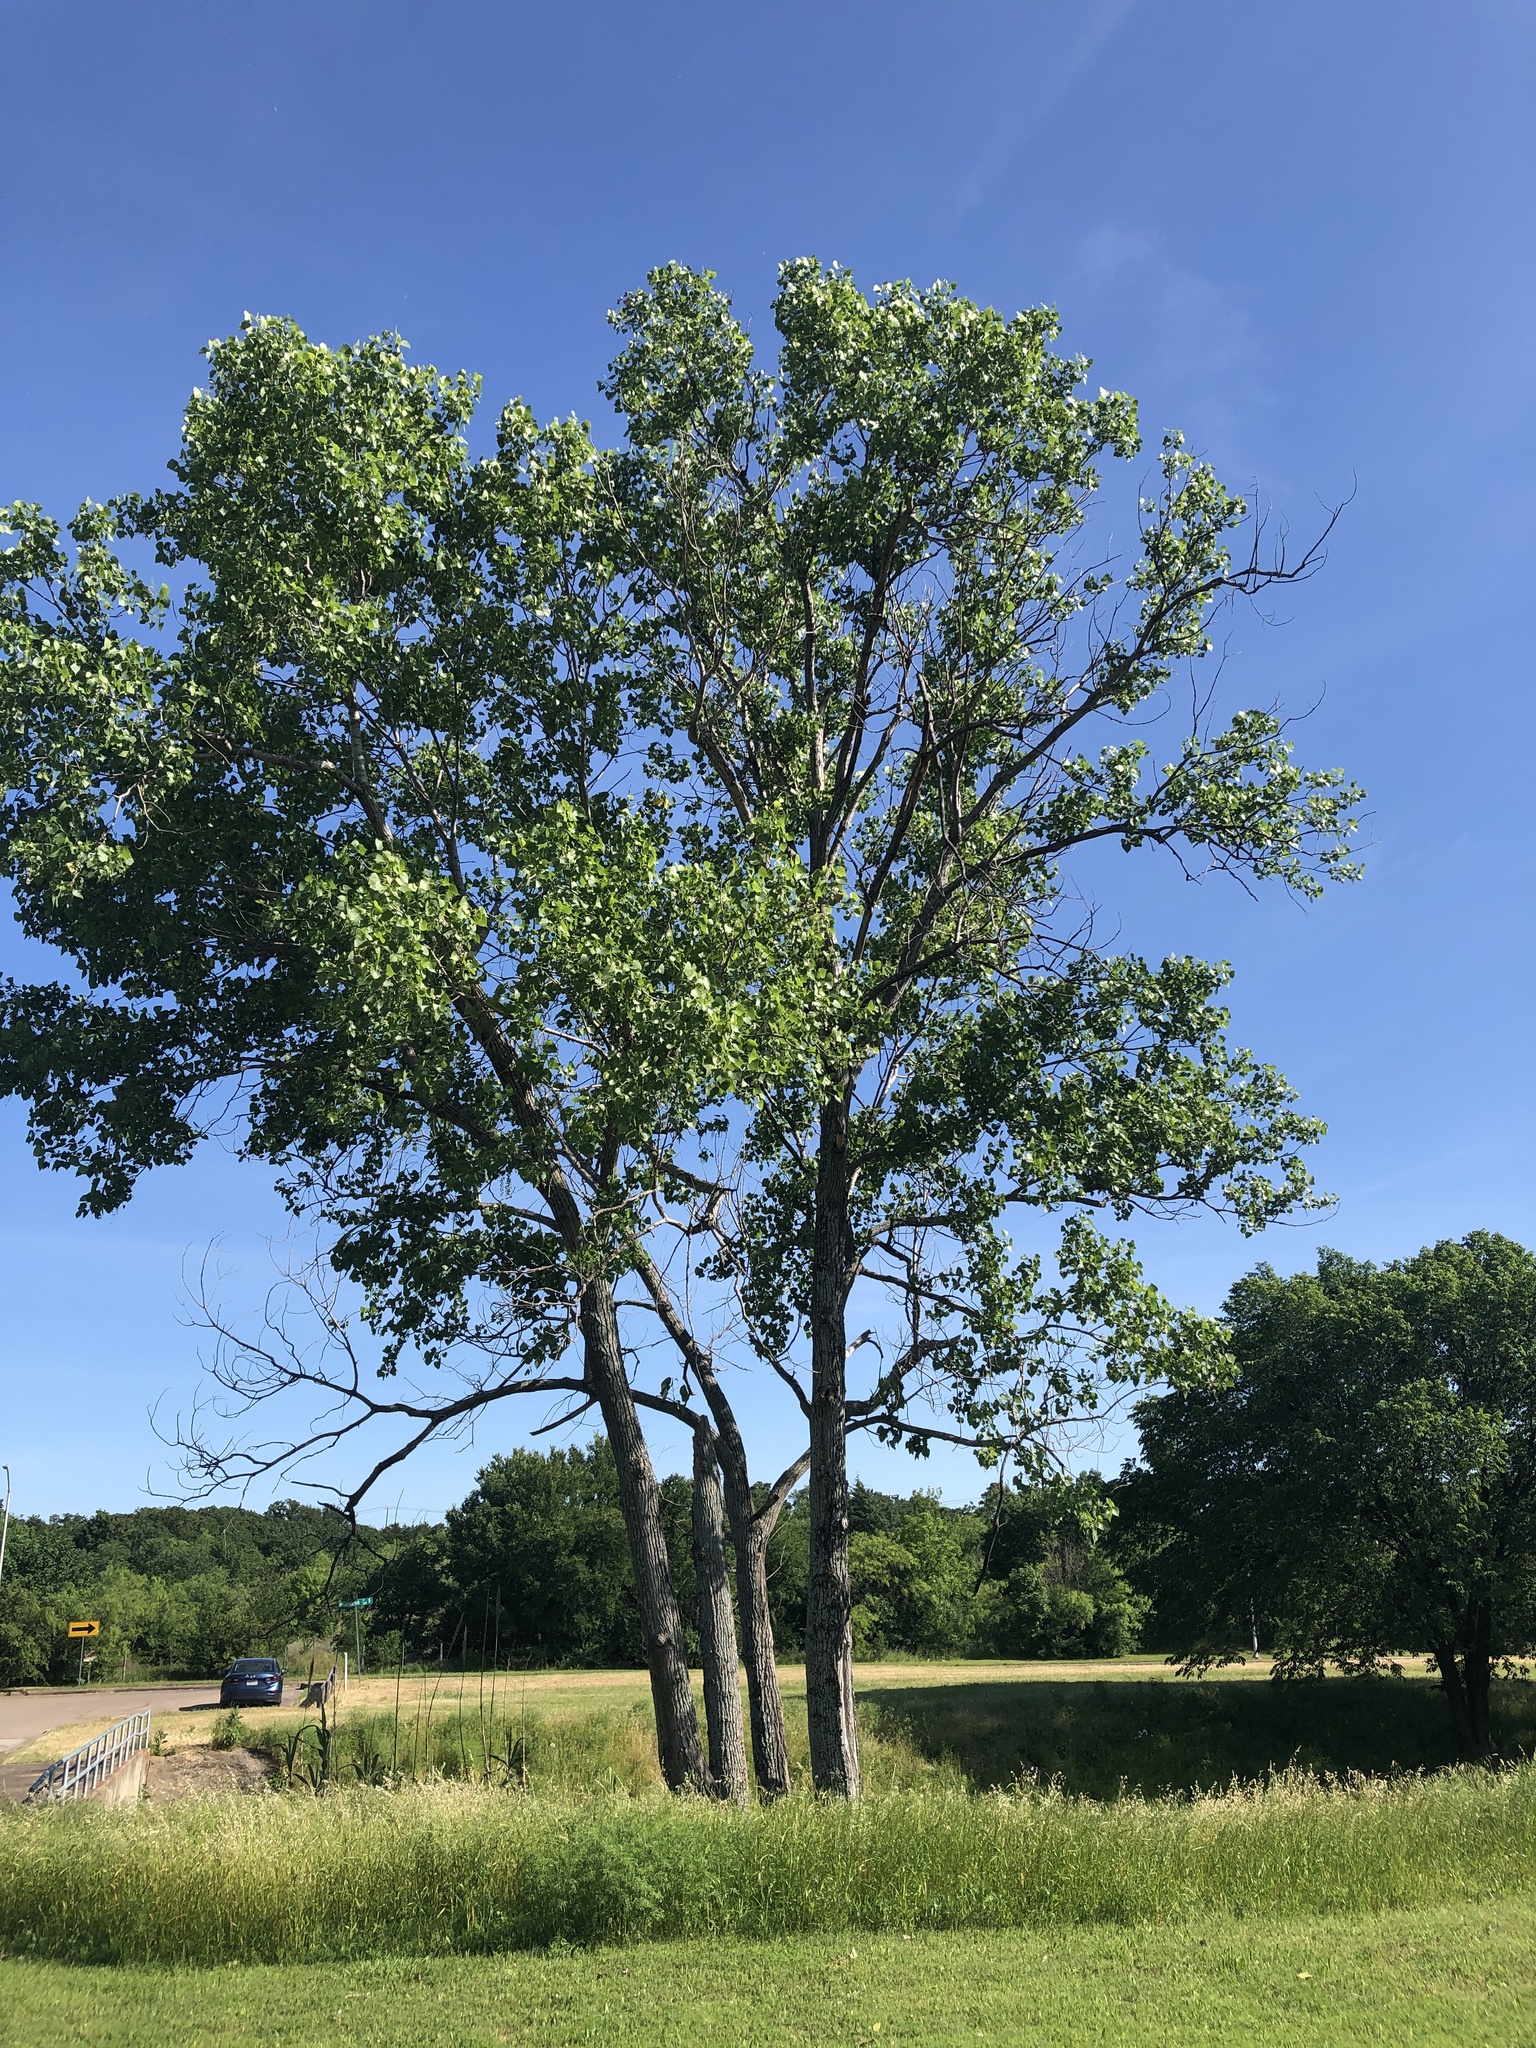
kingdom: Plantae
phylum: Tracheophyta
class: Magnoliopsida
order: Malpighiales
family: Salicaceae
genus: Populus
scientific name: Populus deltoides
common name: Eastern cottonwood
